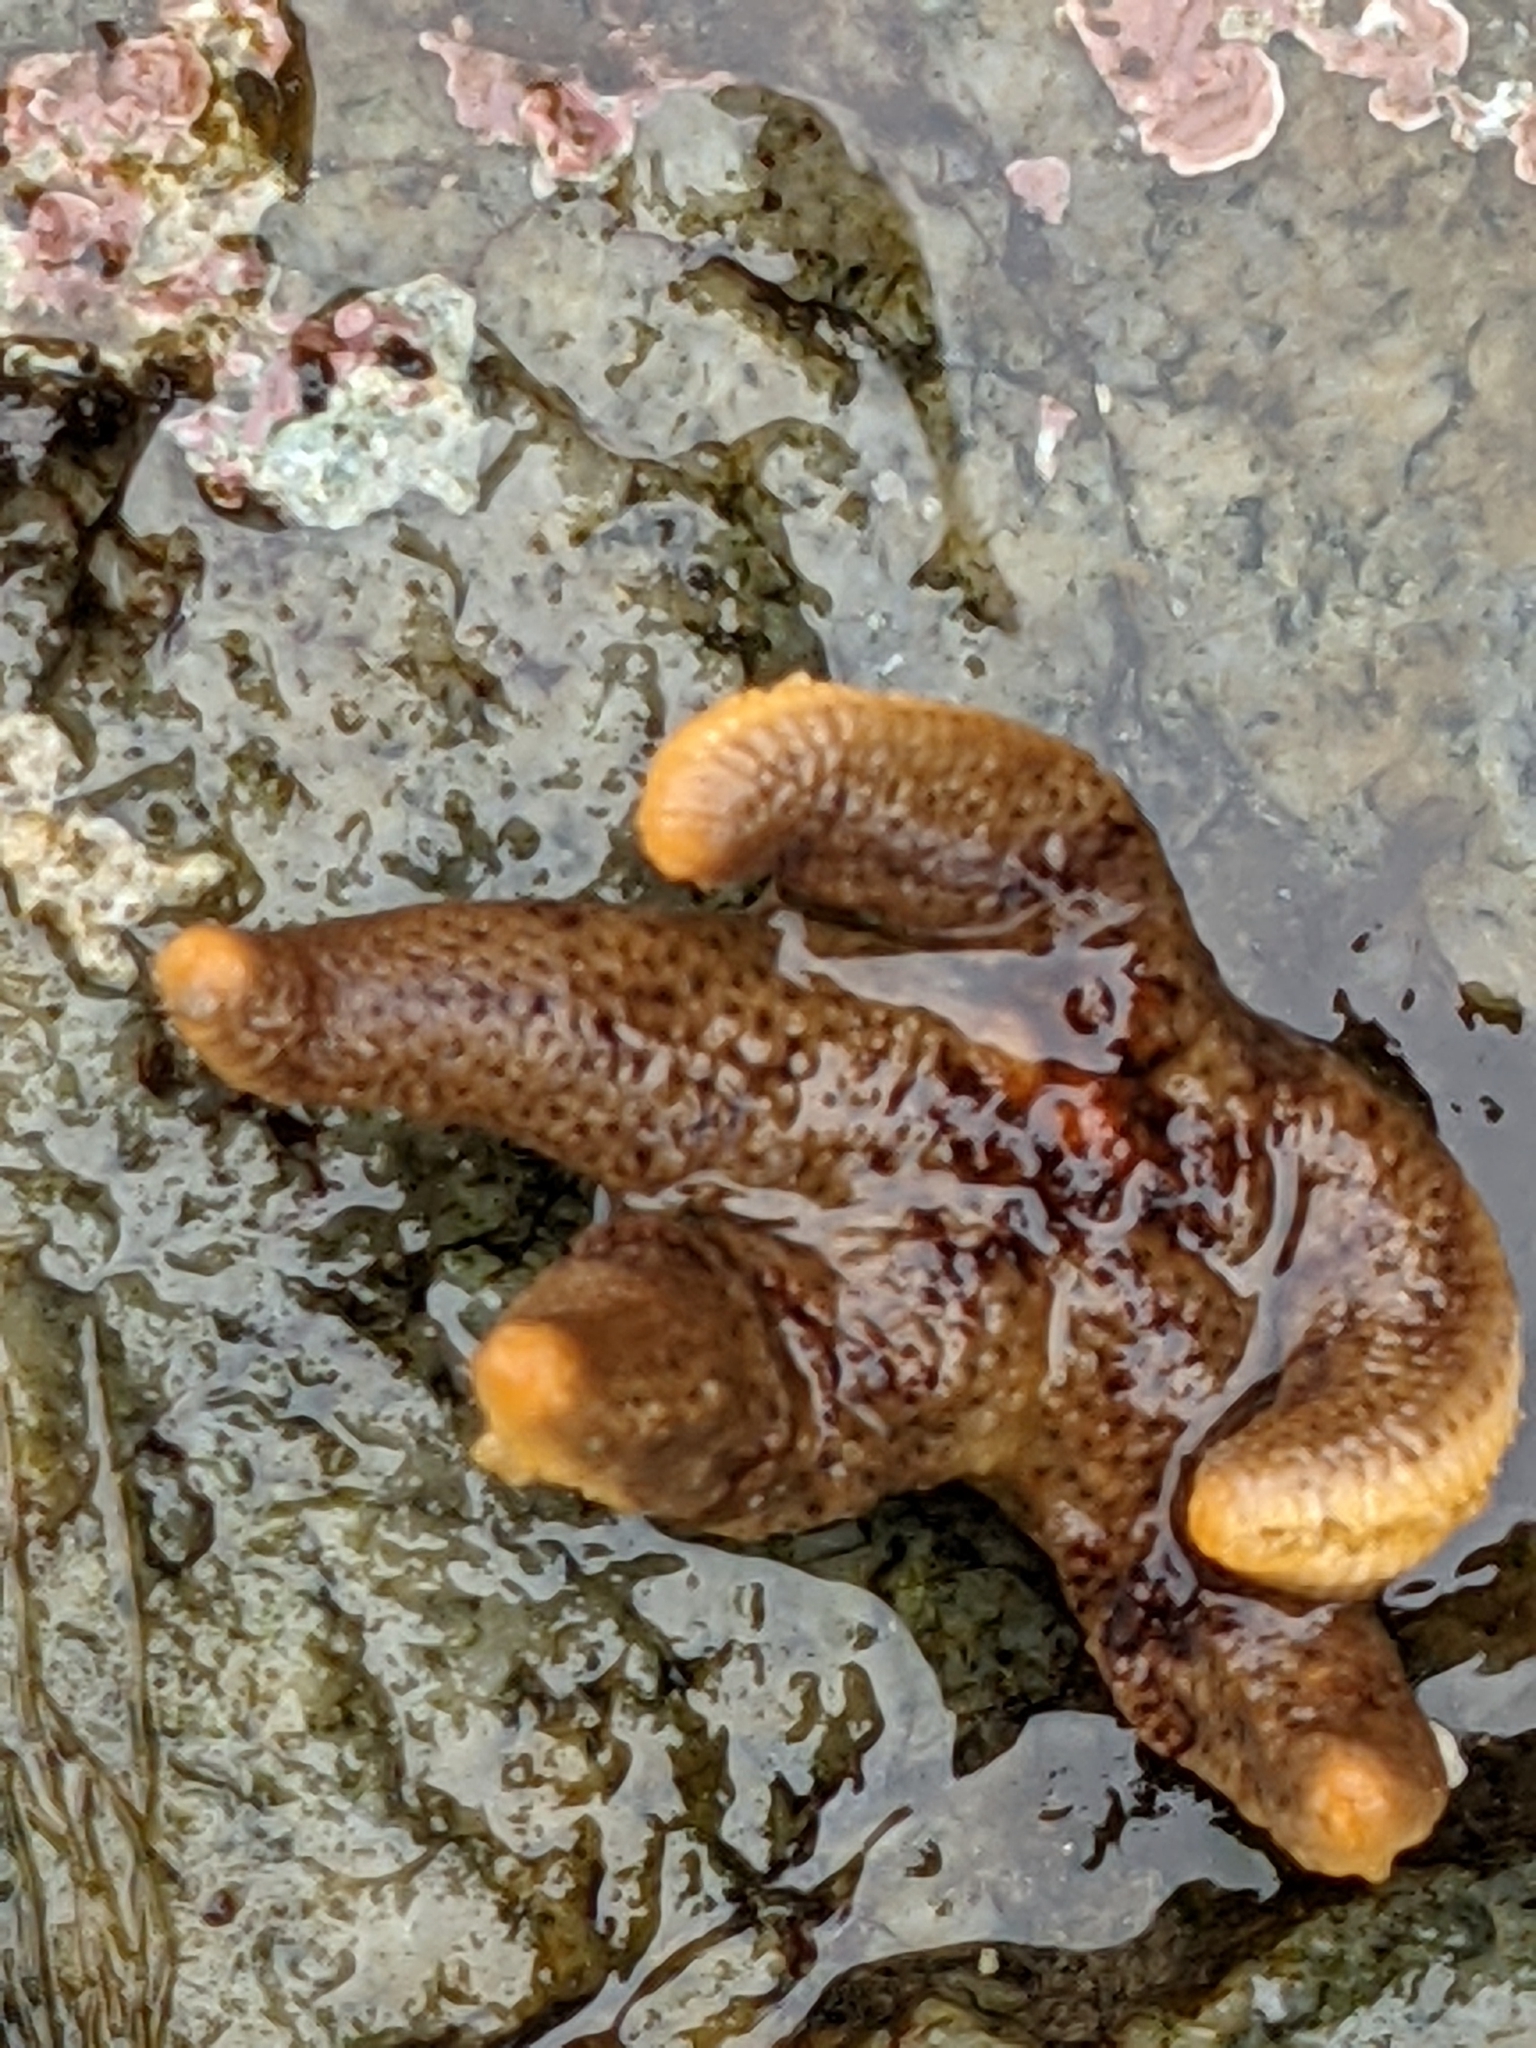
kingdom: Animalia
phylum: Echinodermata
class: Asteroidea
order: Spinulosida
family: Echinasteridae
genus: Henricia
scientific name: Henricia pumila
